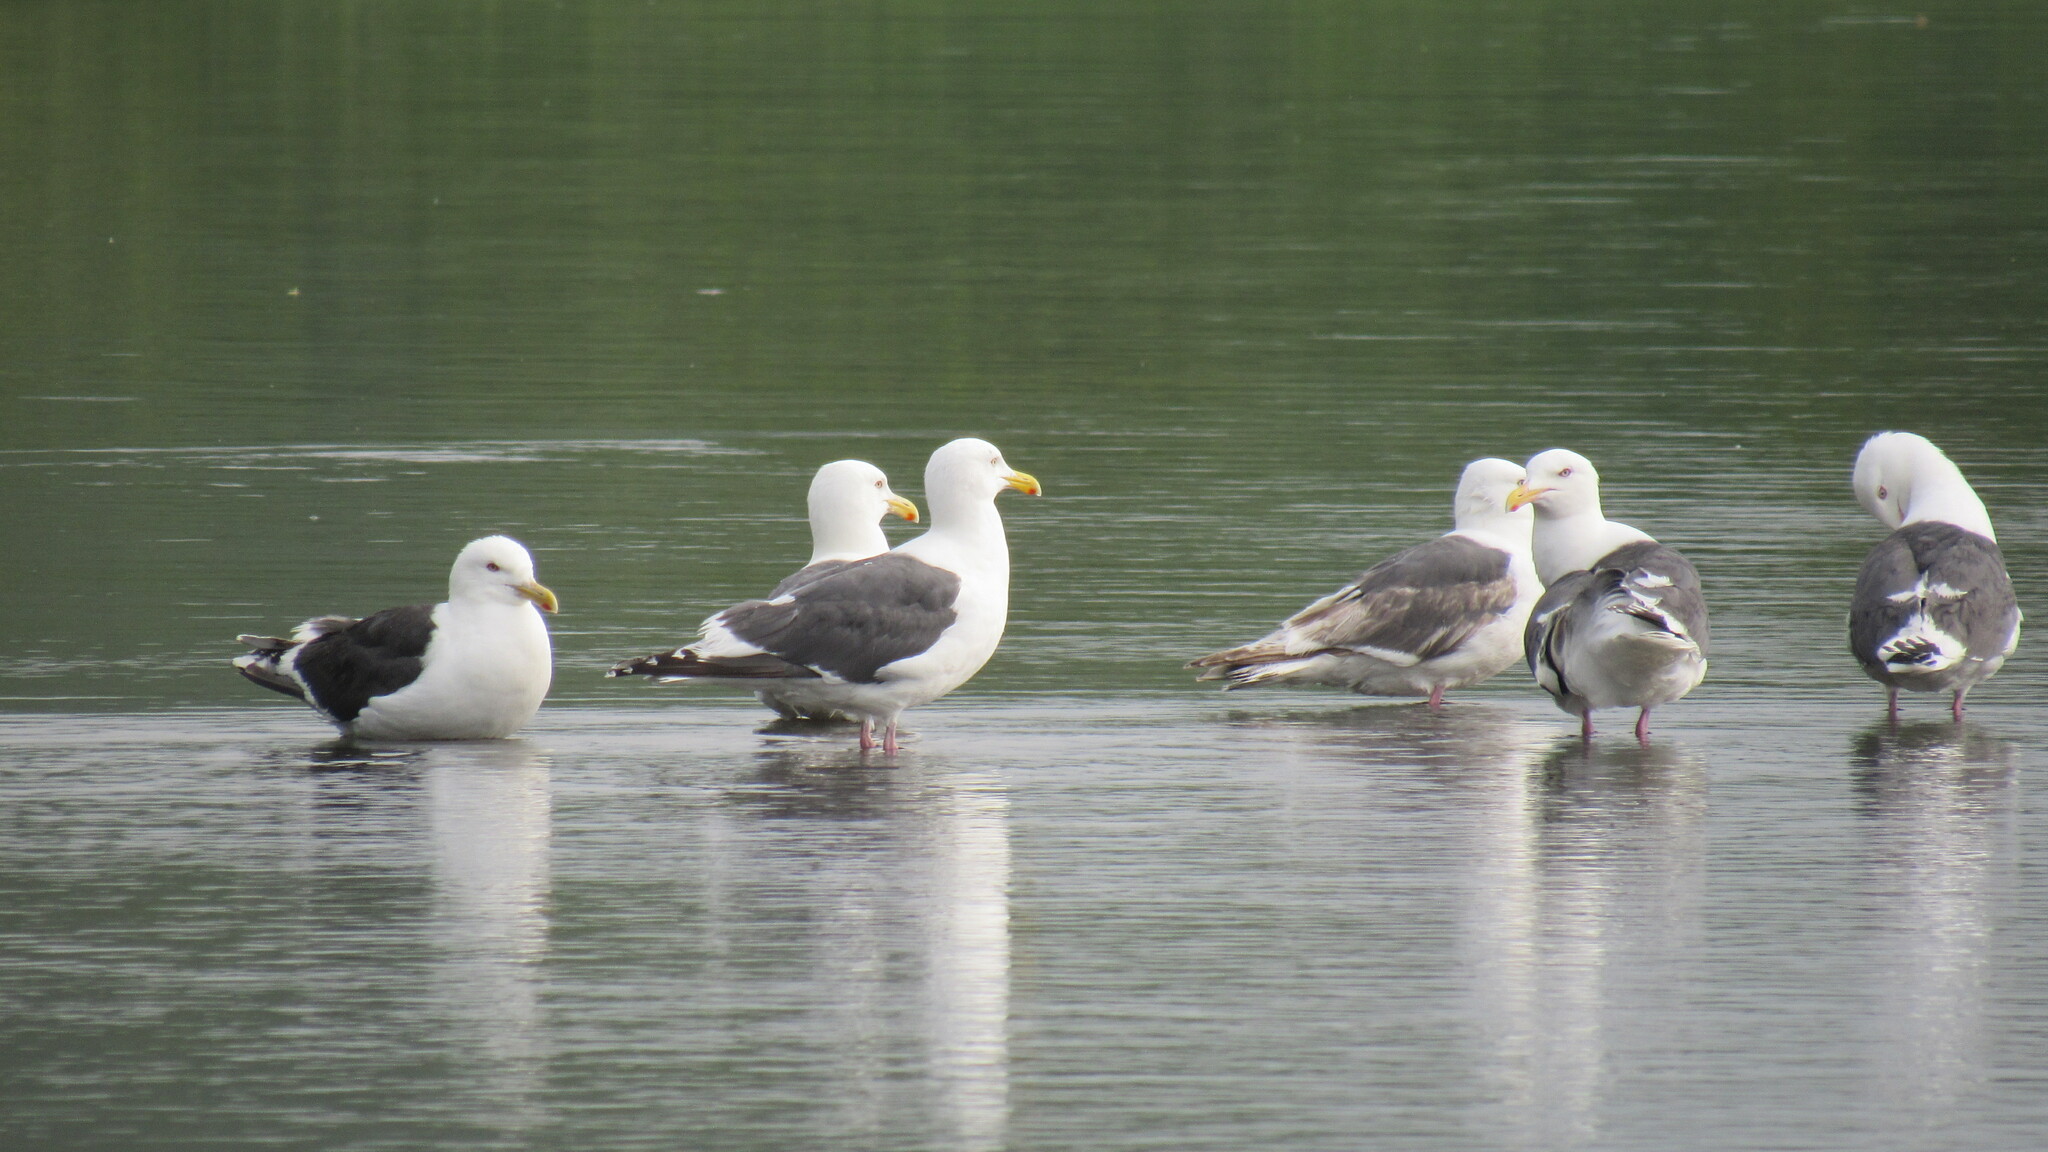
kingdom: Animalia
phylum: Chordata
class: Aves
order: Charadriiformes
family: Laridae
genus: Larus
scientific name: Larus schistisagus
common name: Slaty-backed gull
